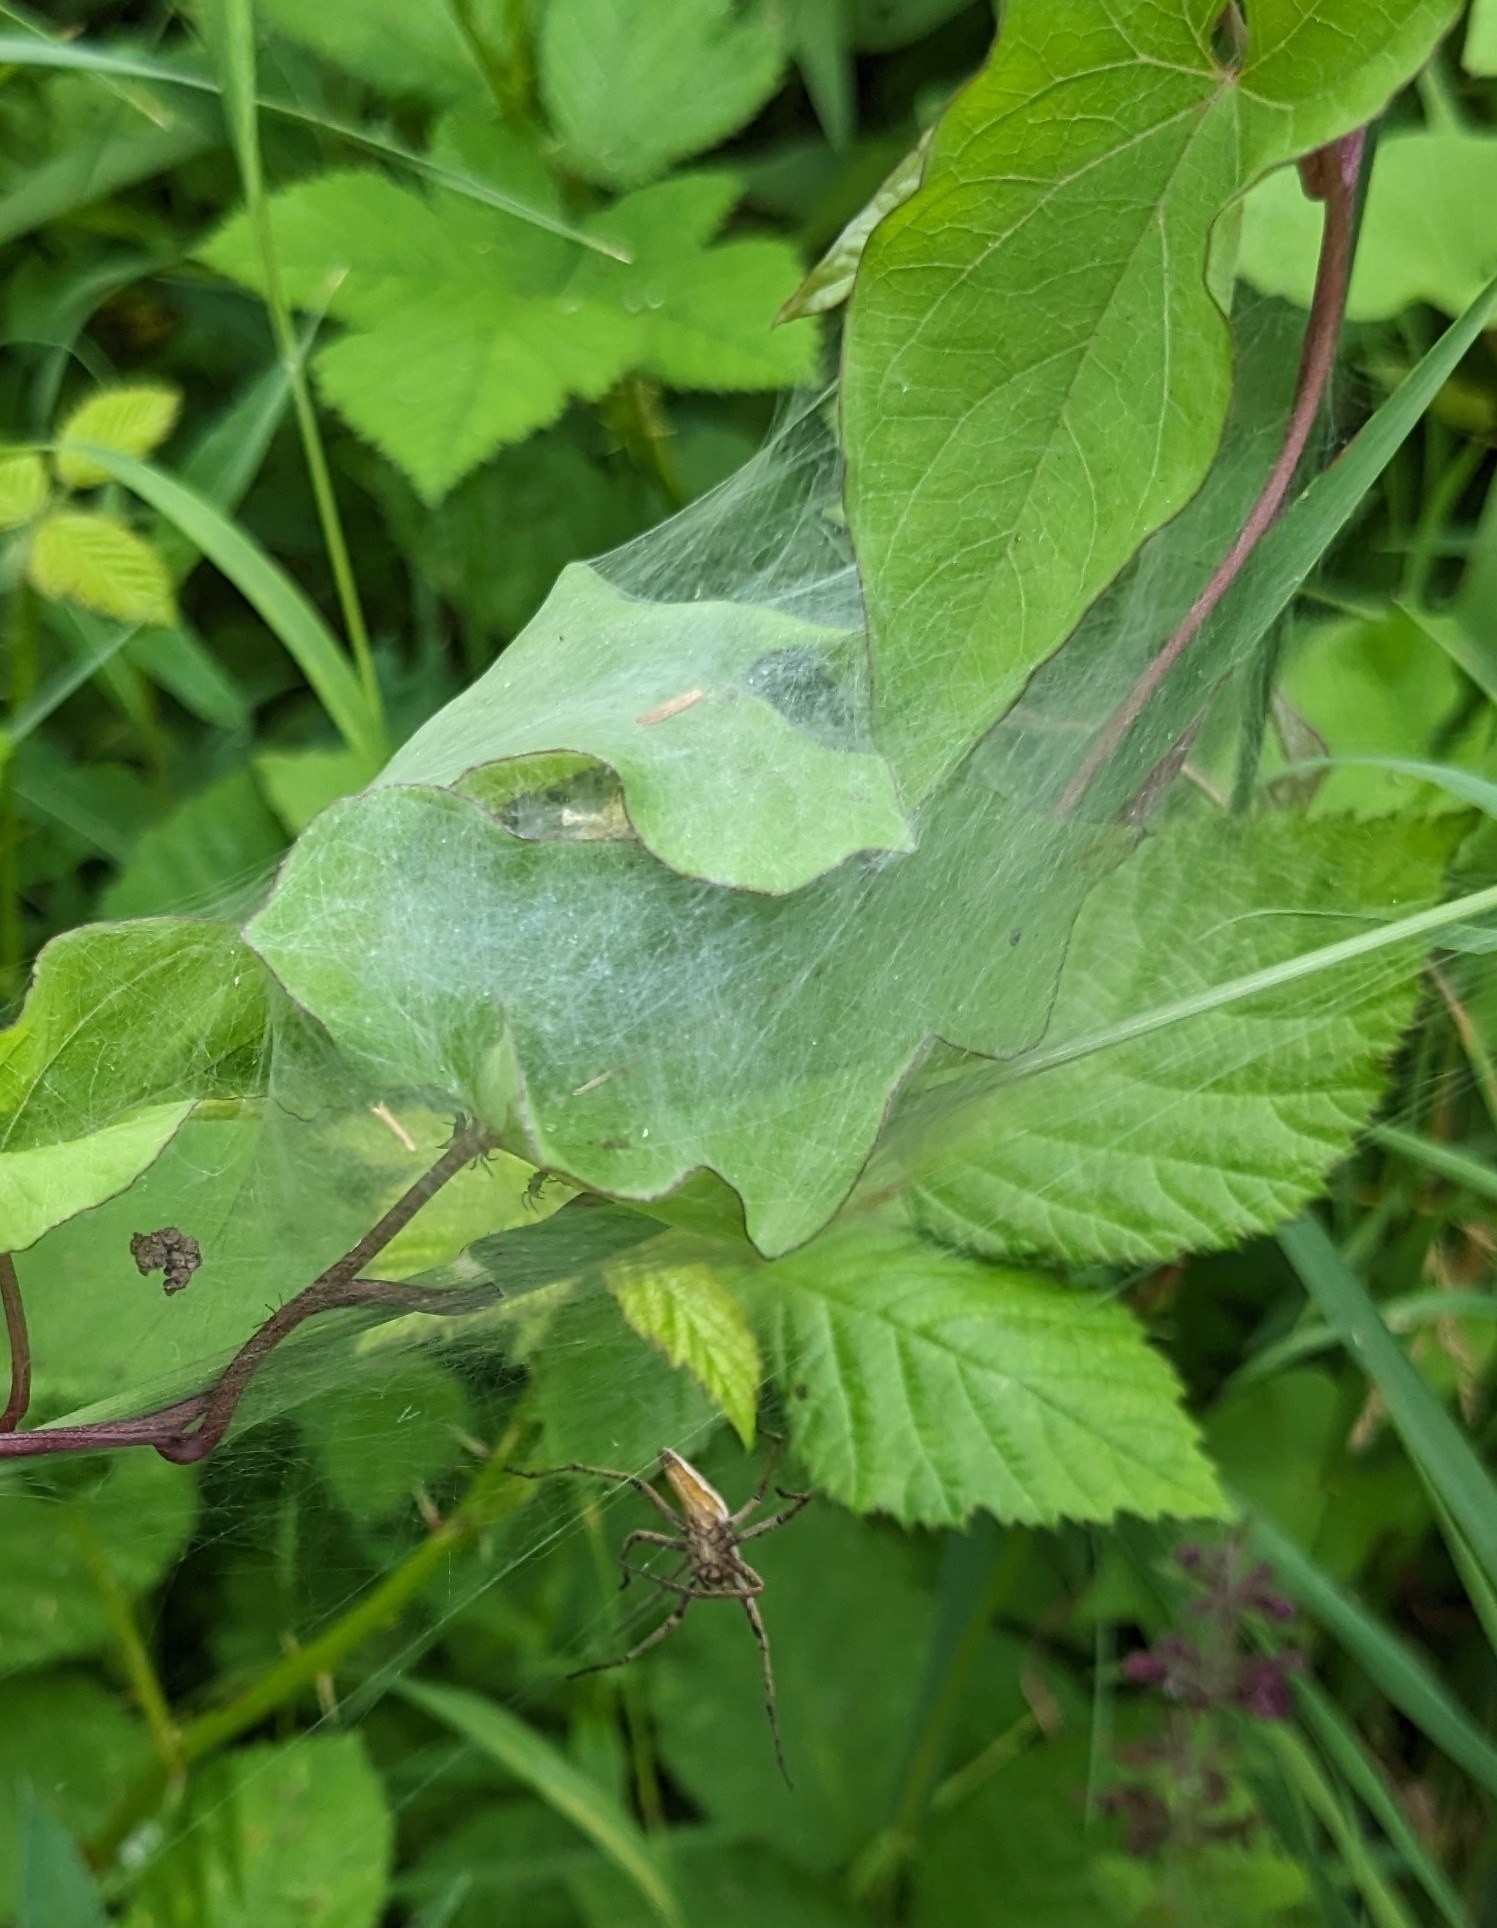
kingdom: Animalia
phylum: Arthropoda
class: Arachnida
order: Araneae
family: Pisauridae
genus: Pisaura
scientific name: Pisaura mirabilis
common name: Tent spider
